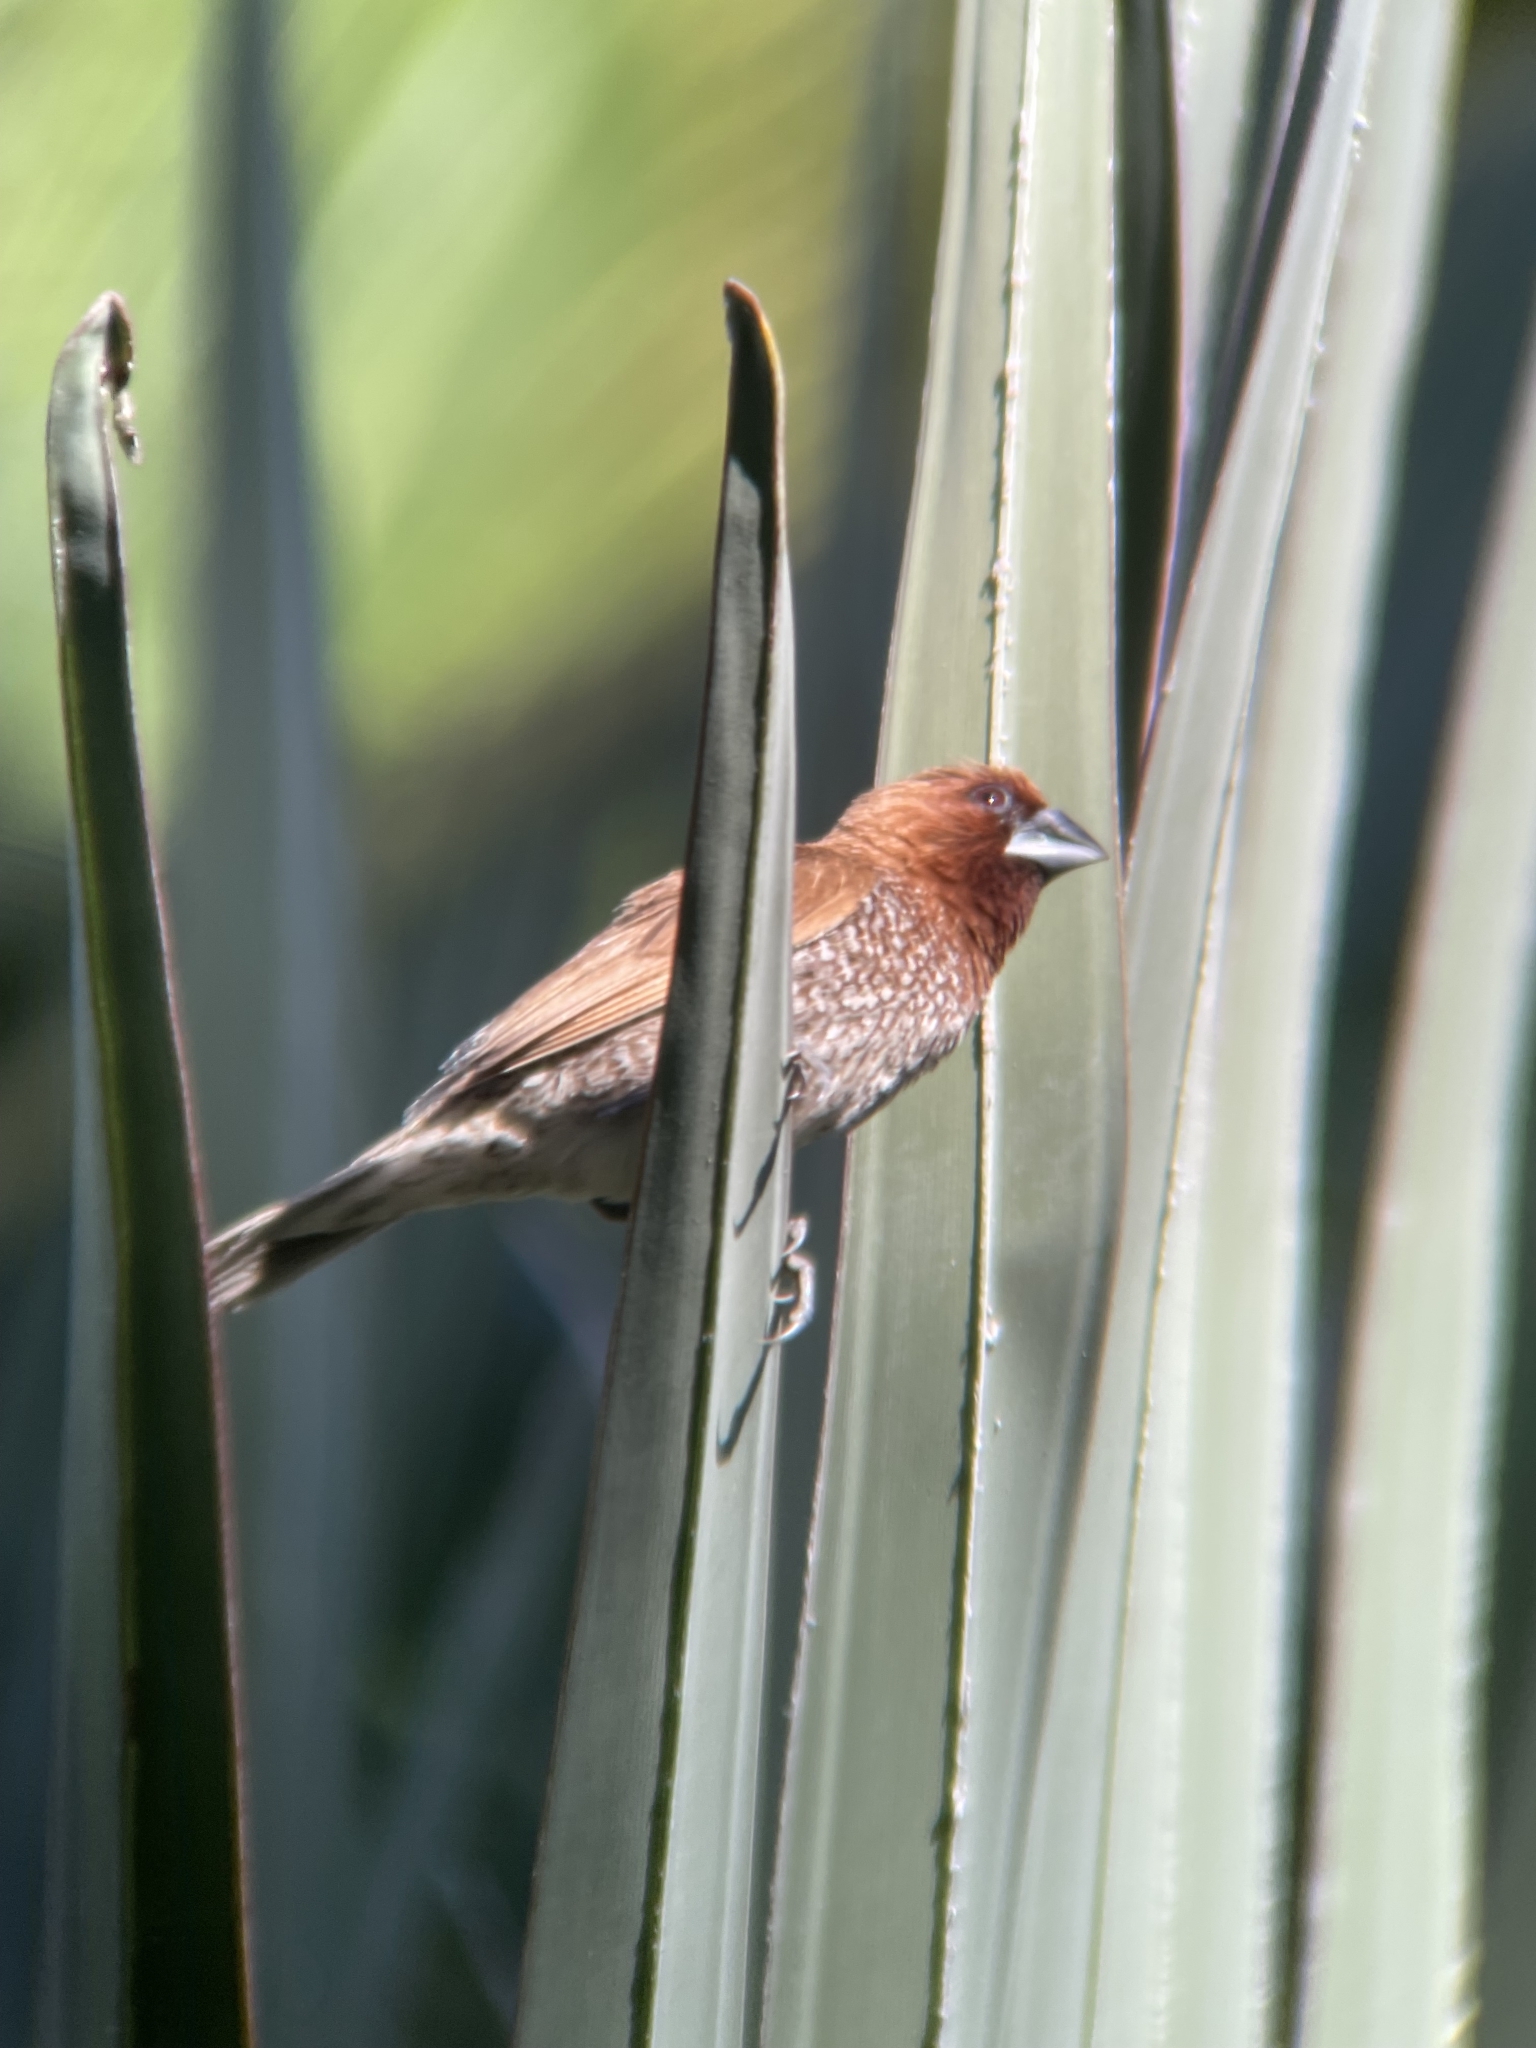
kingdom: Animalia
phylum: Chordata
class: Aves
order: Passeriformes
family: Estrildidae
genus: Lonchura
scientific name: Lonchura punctulata
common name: Scaly-breasted munia
